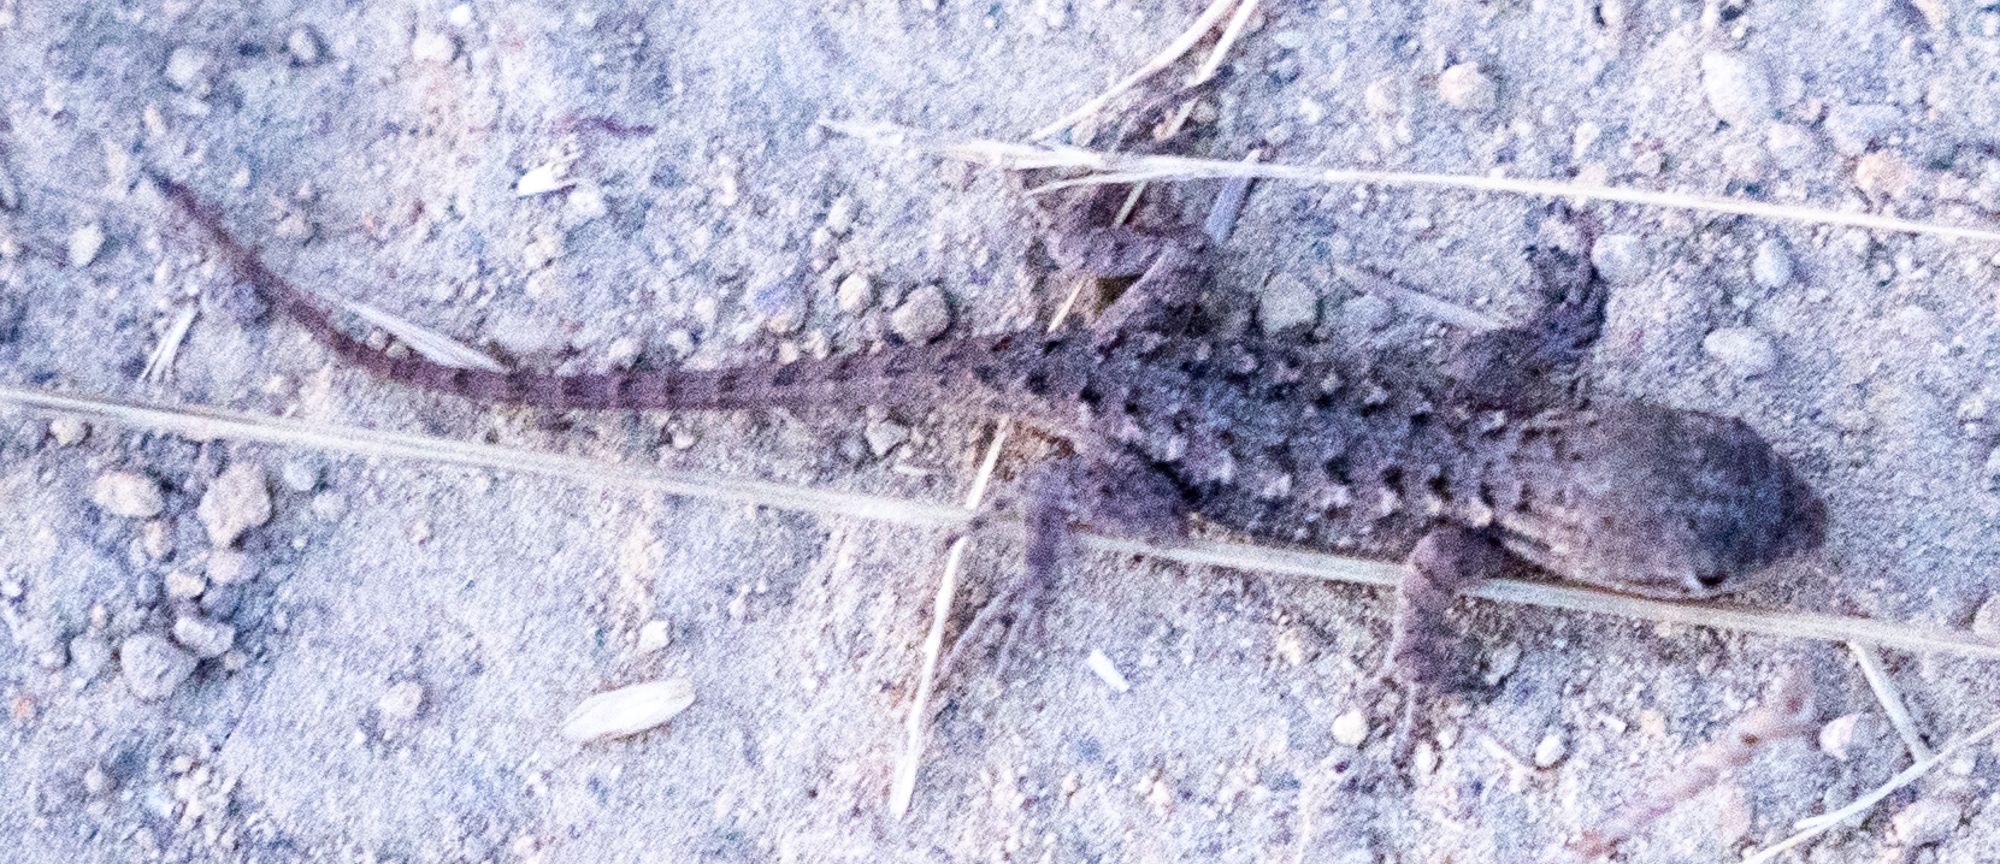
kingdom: Animalia
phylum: Chordata
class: Squamata
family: Phrynosomatidae
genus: Sceloporus
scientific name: Sceloporus occidentalis
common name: Western fence lizard
